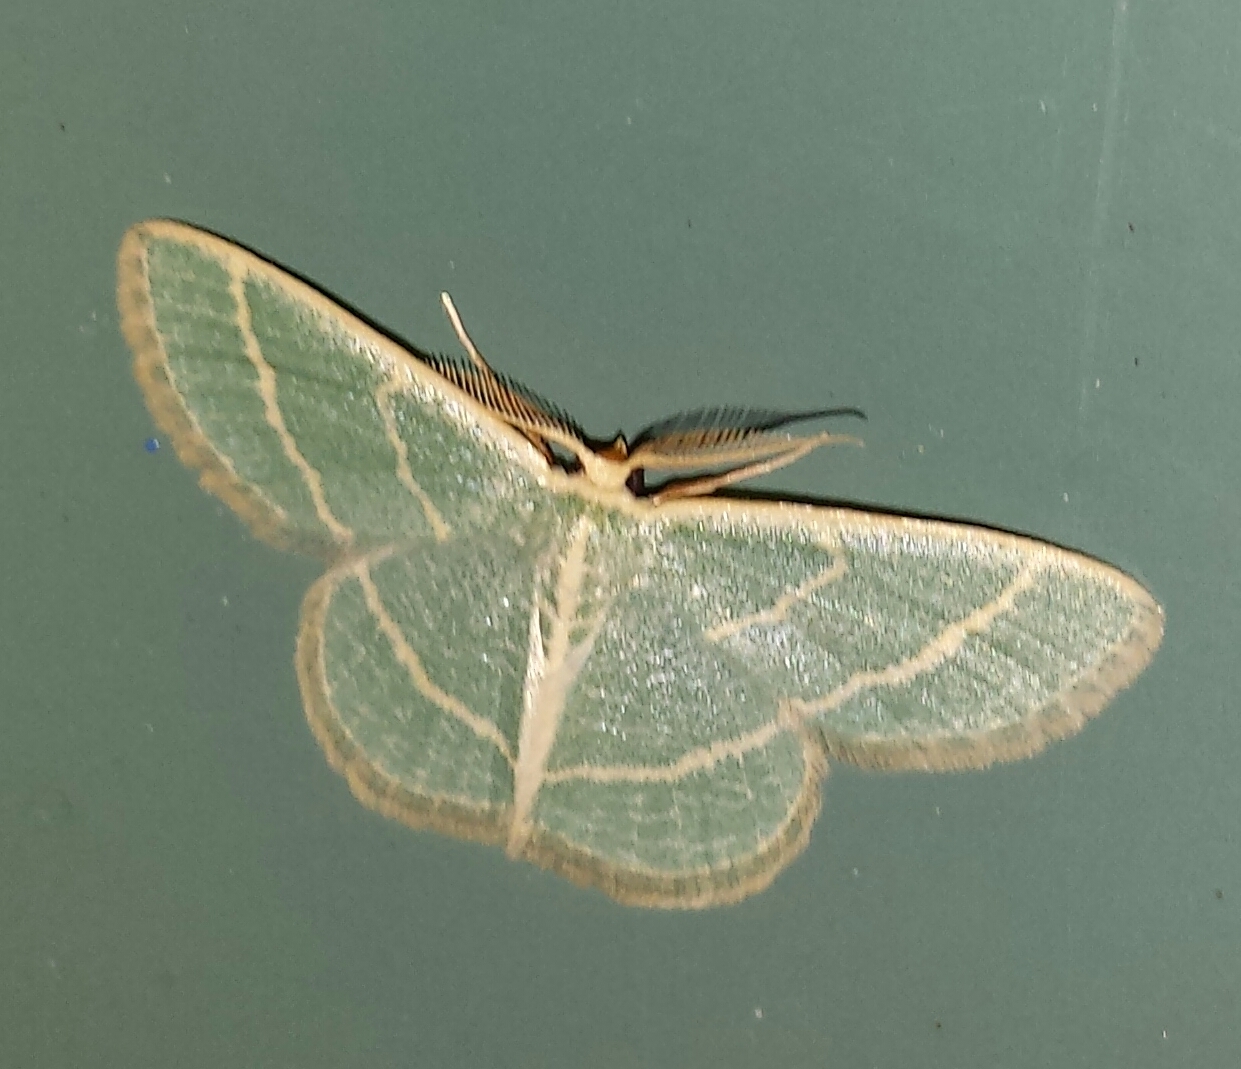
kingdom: Animalia
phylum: Arthropoda
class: Insecta
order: Lepidoptera
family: Geometridae
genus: Chlorochlamys
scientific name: Chlorochlamys chloroleucaria
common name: Blackberry looper
